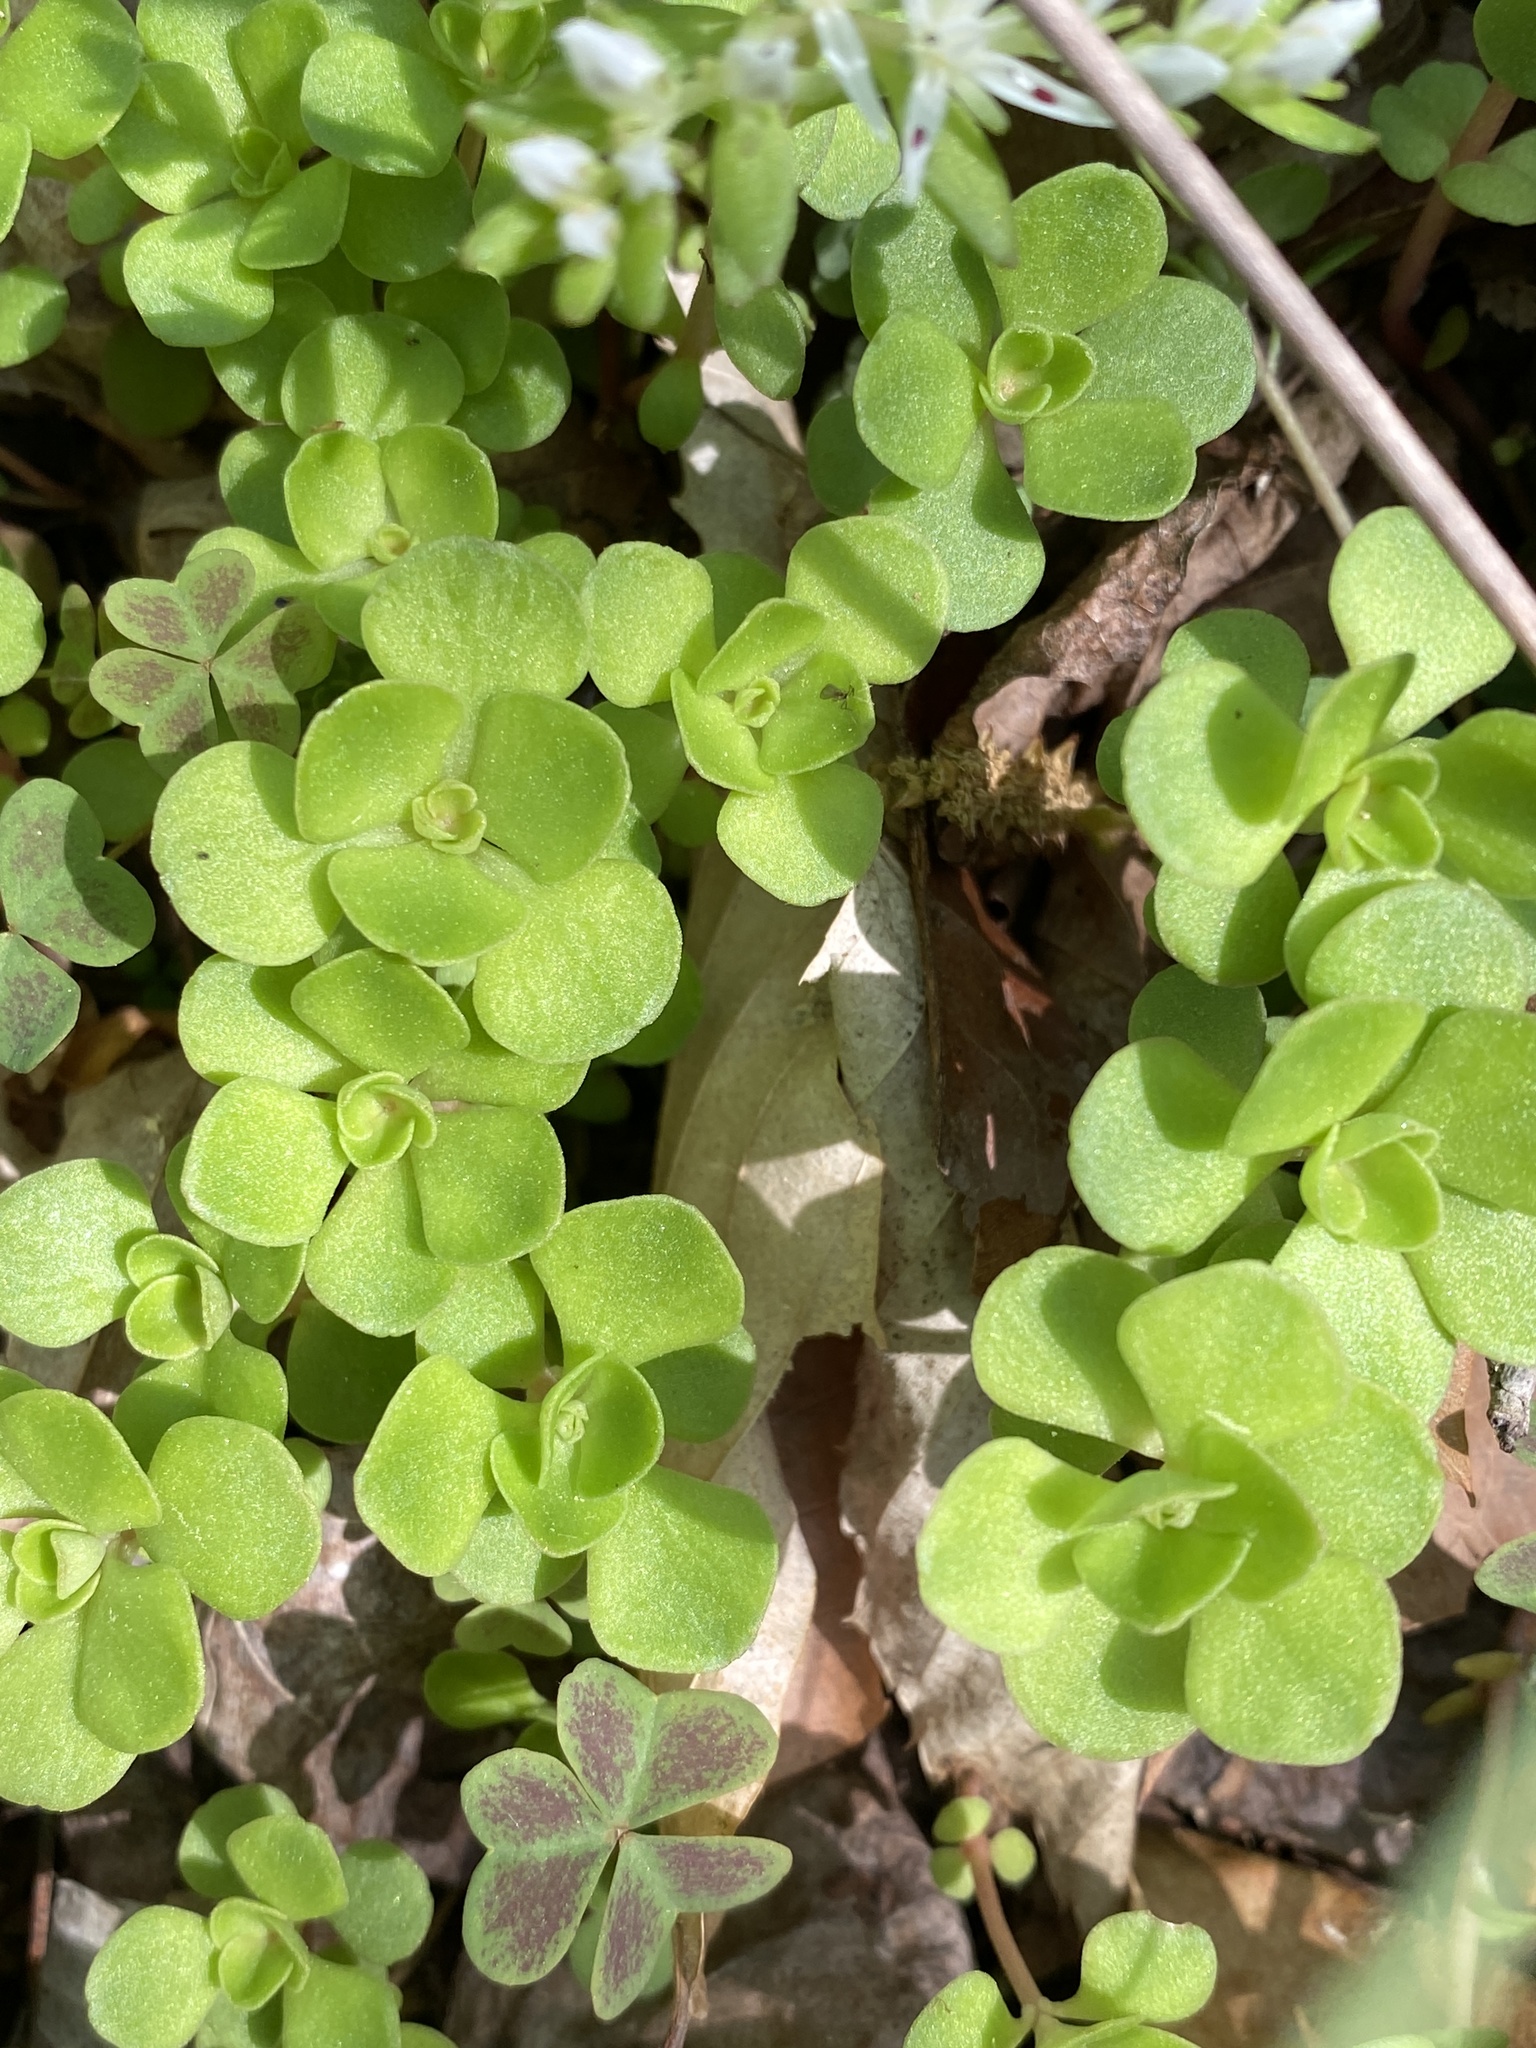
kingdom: Plantae
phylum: Tracheophyta
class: Magnoliopsida
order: Saxifragales
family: Crassulaceae
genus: Sedum
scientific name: Sedum ternatum
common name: Wild stonecrop
